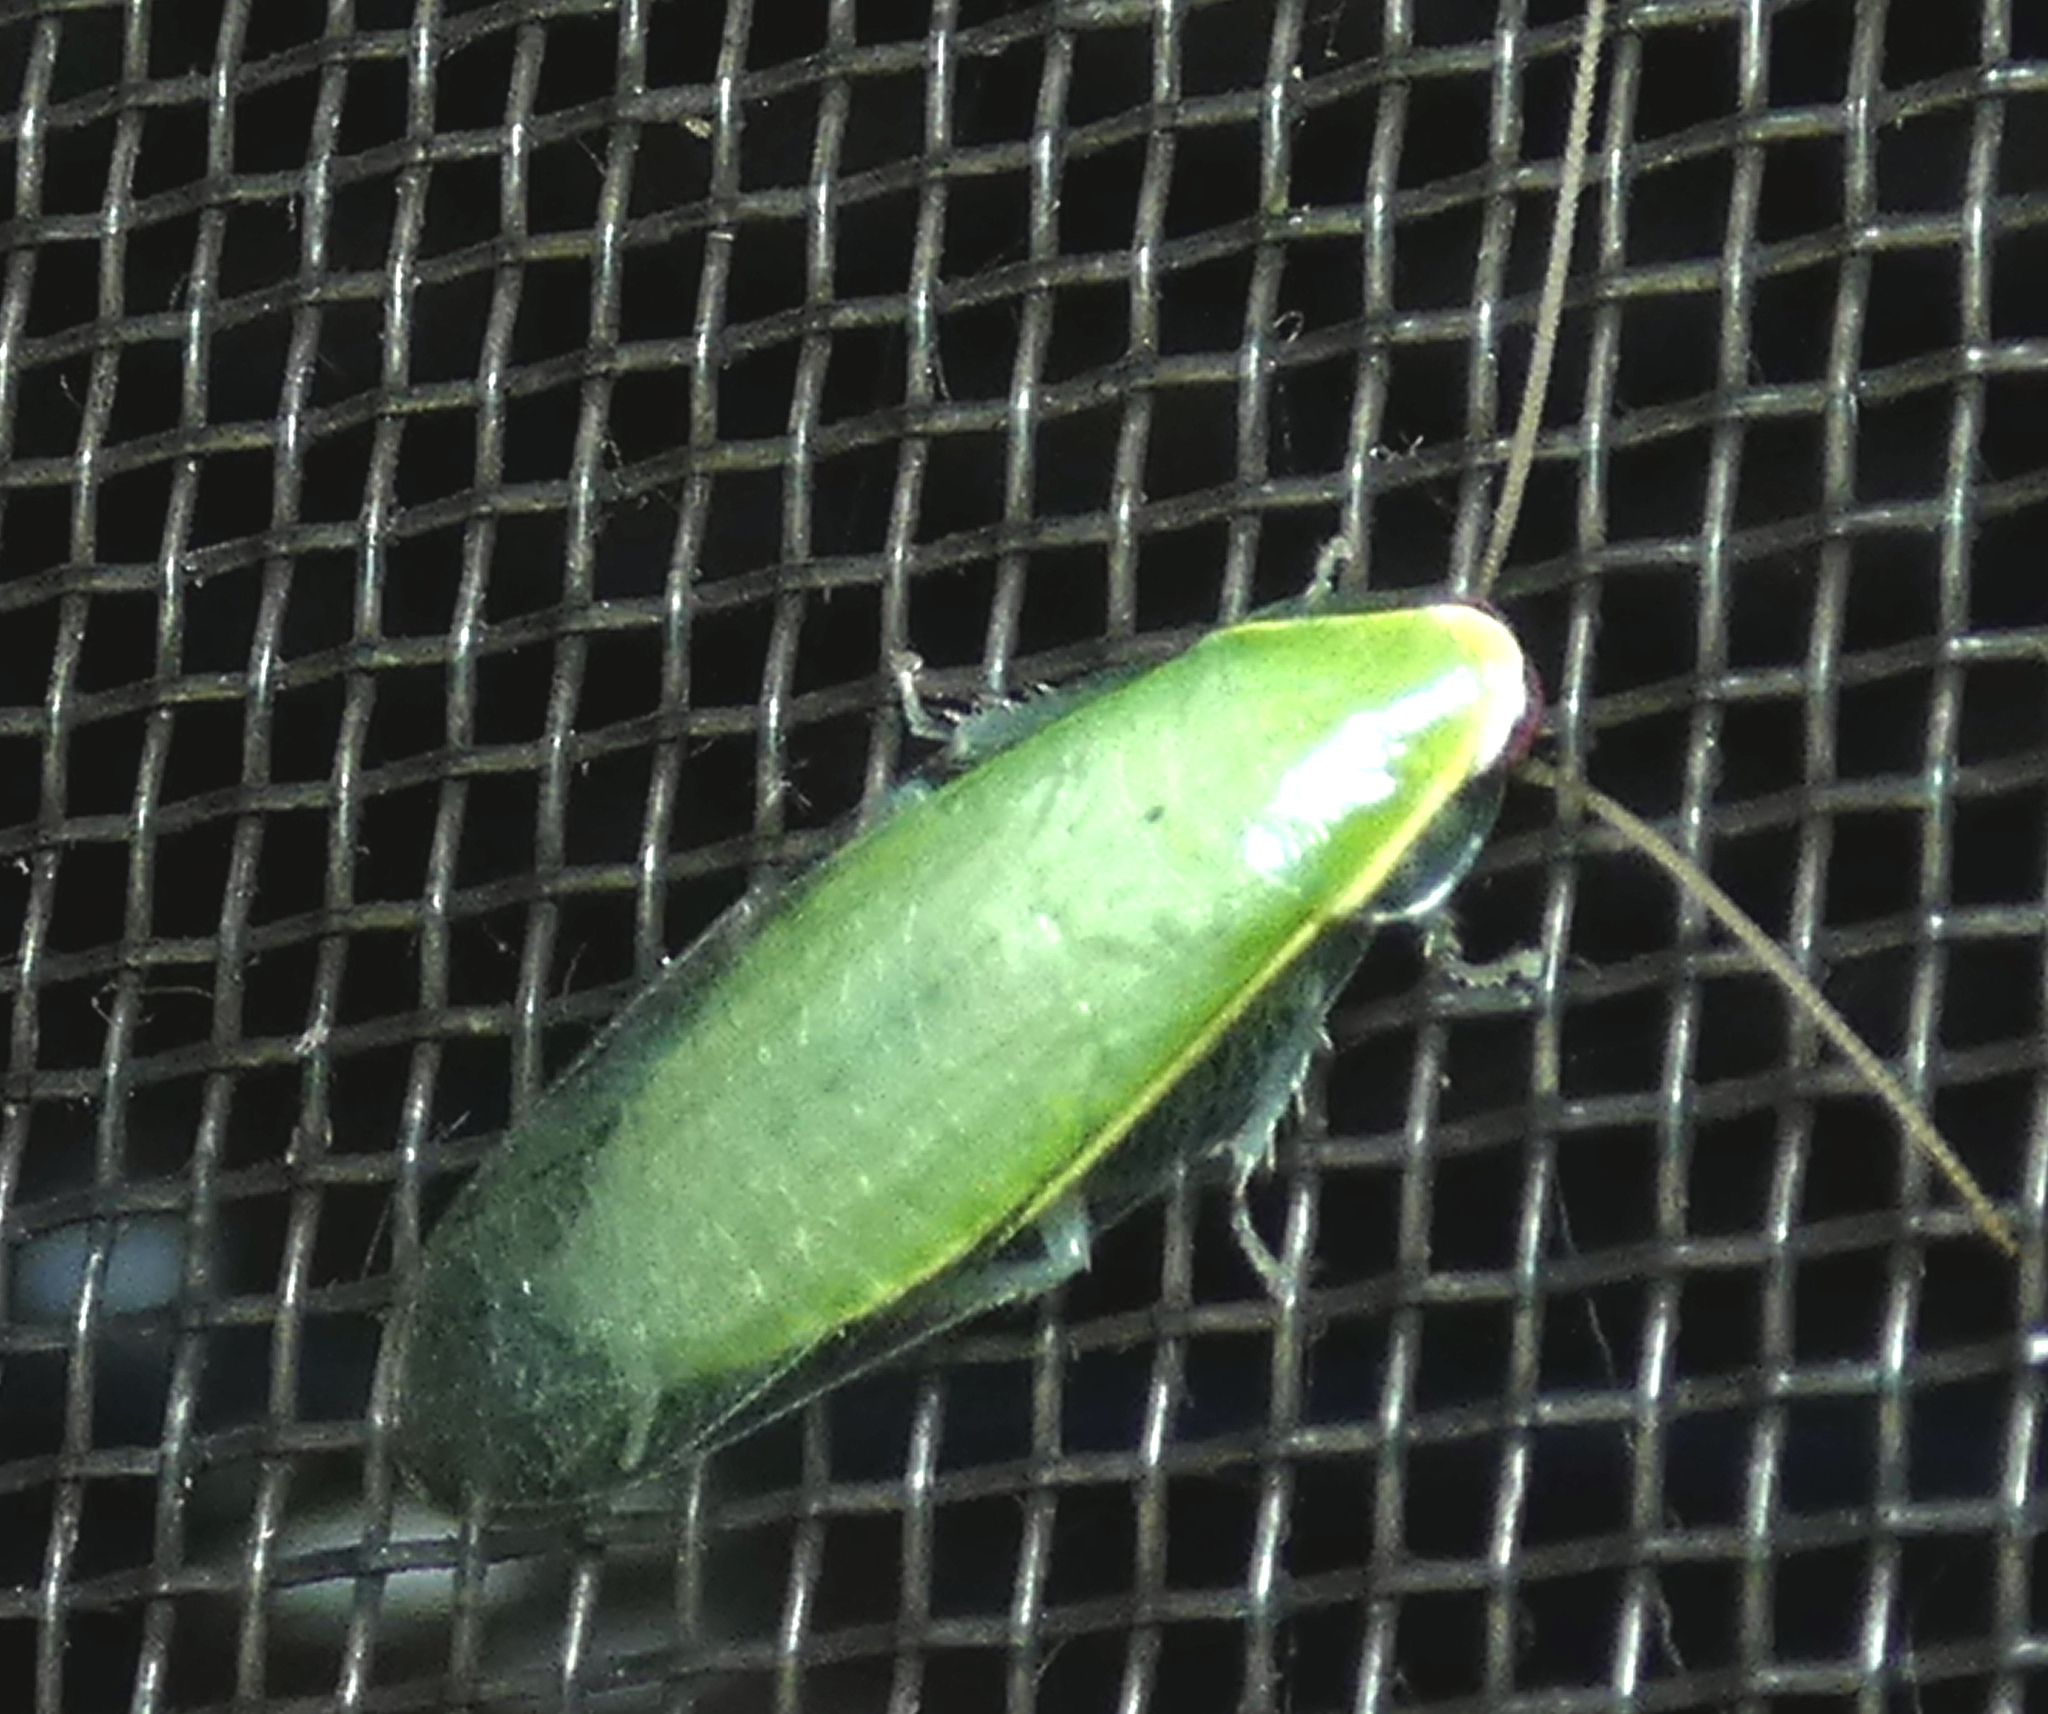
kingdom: Animalia
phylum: Arthropoda
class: Insecta
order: Blattodea
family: Blaberidae
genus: Panchlora
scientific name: Panchlora
